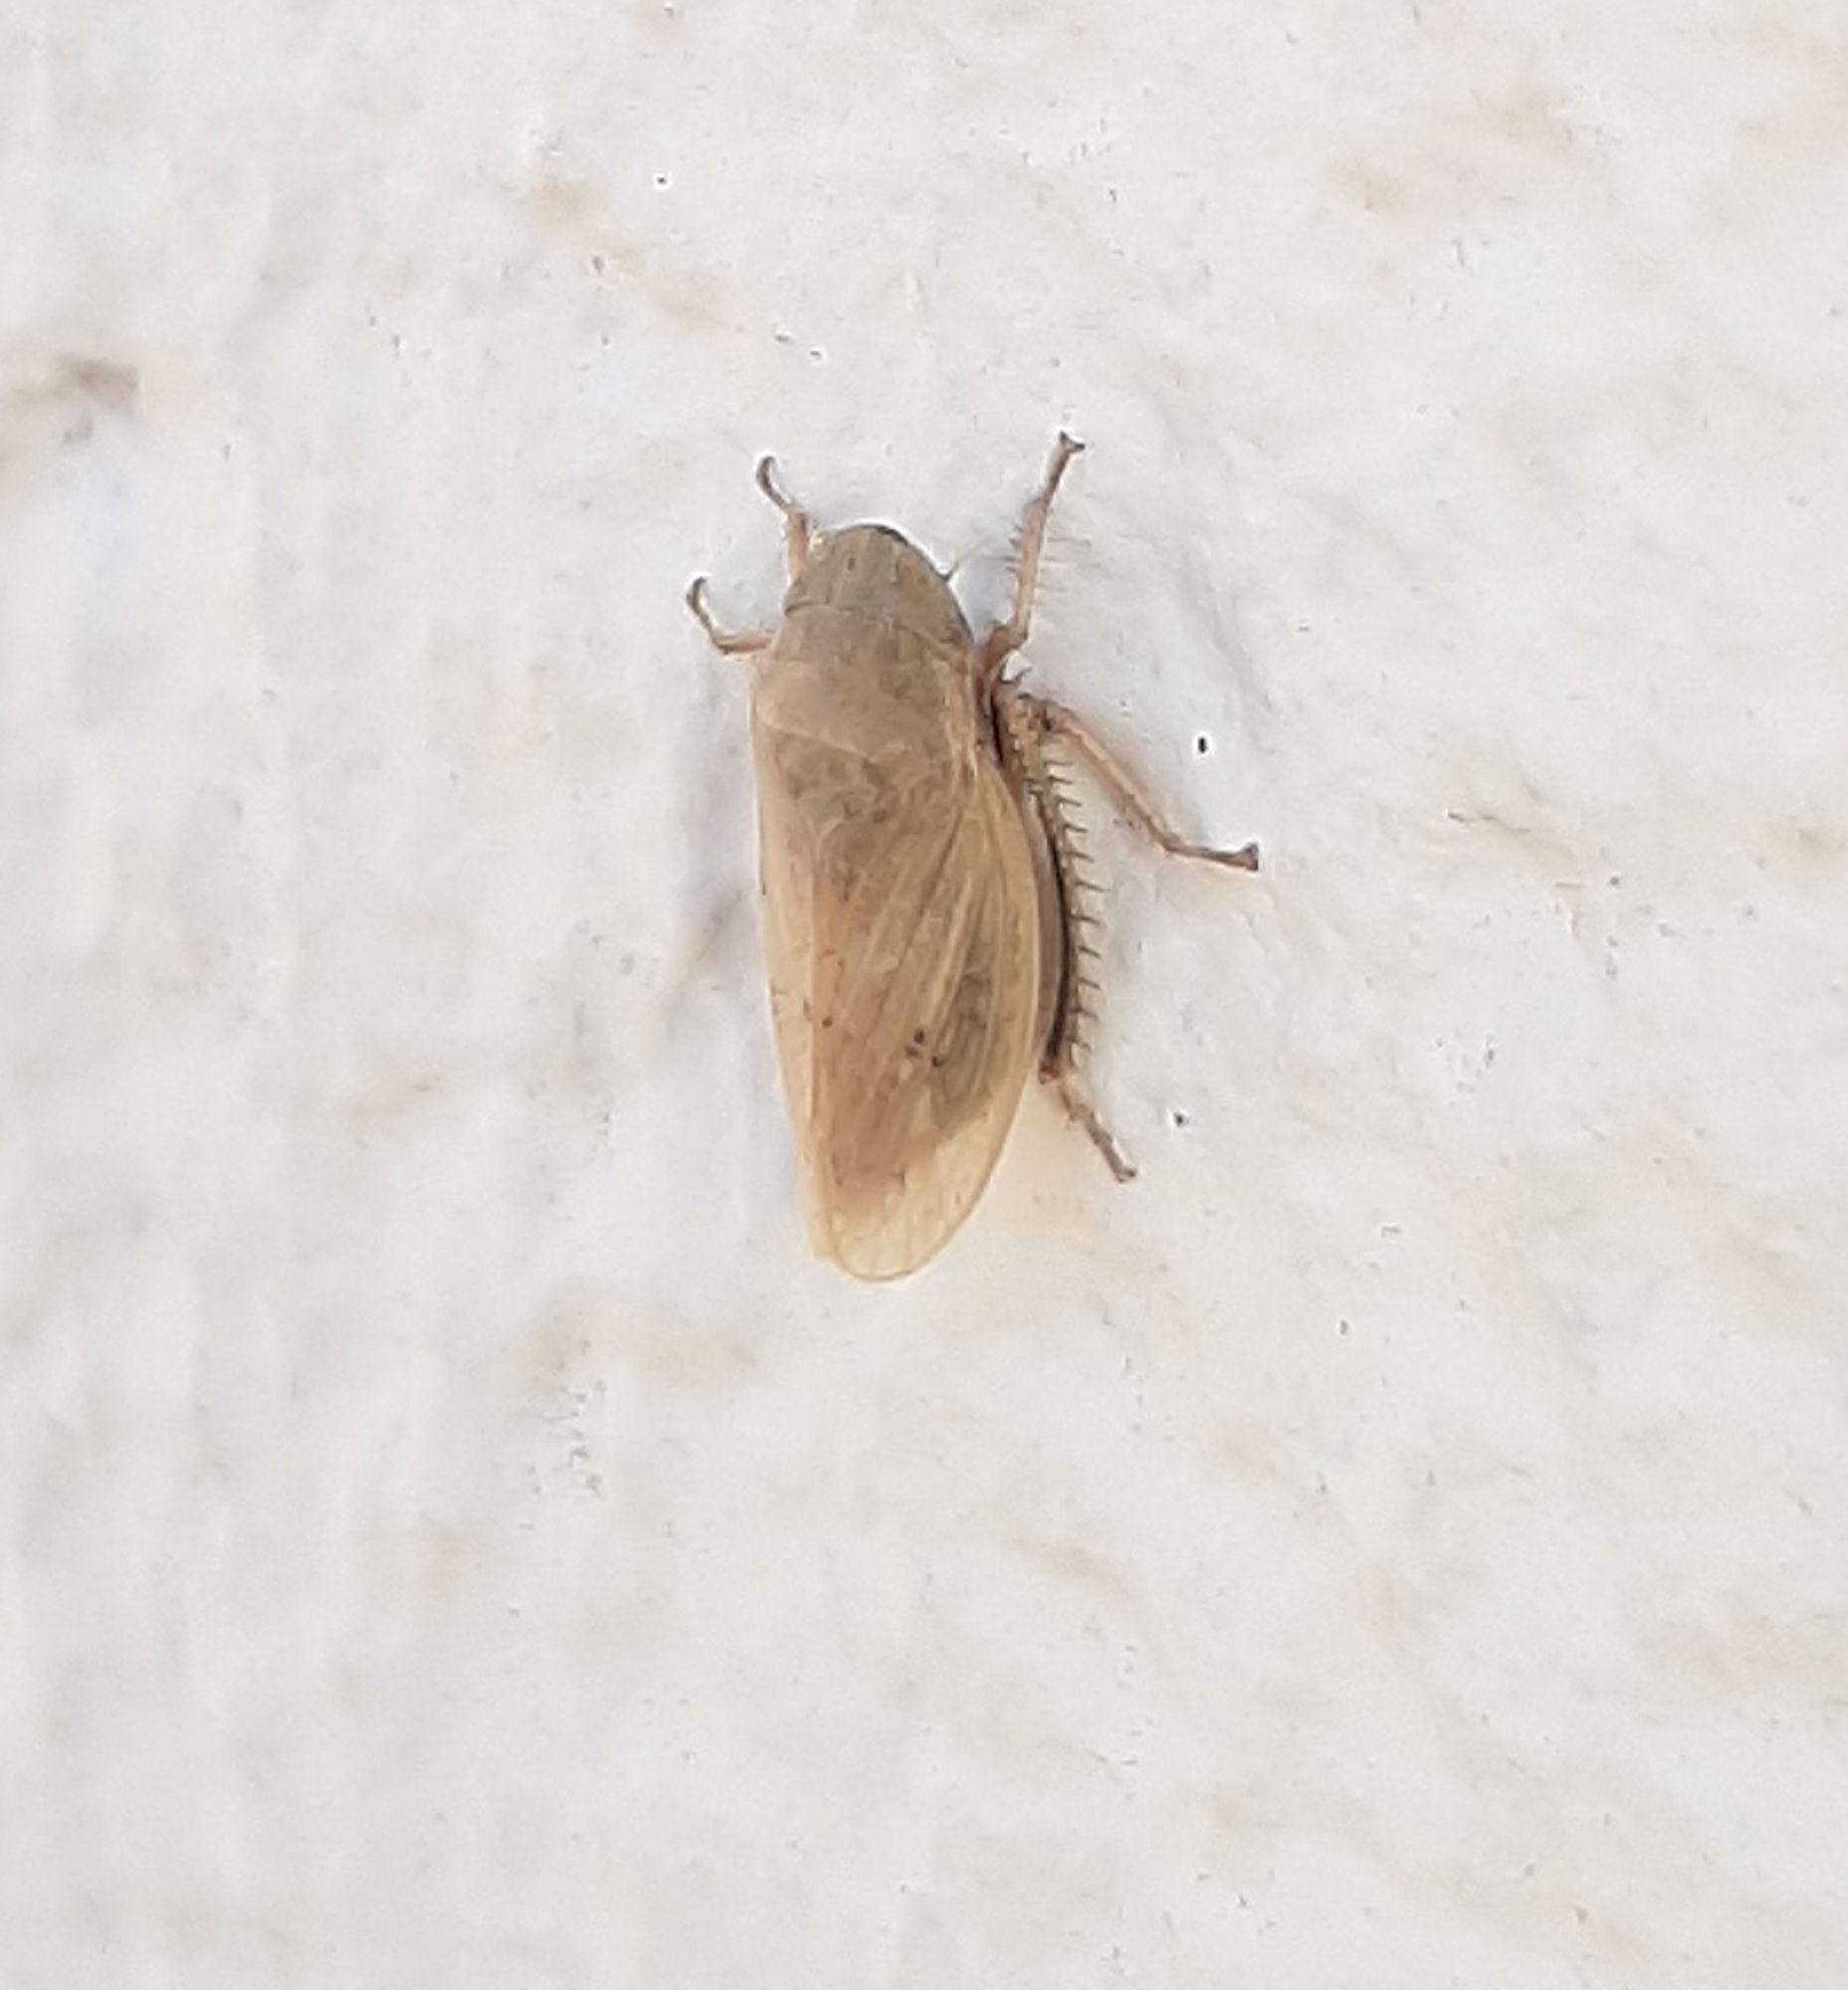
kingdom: Animalia
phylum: Arthropoda
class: Insecta
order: Hemiptera
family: Cicadellidae
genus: Negosiana
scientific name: Negosiana dualis
